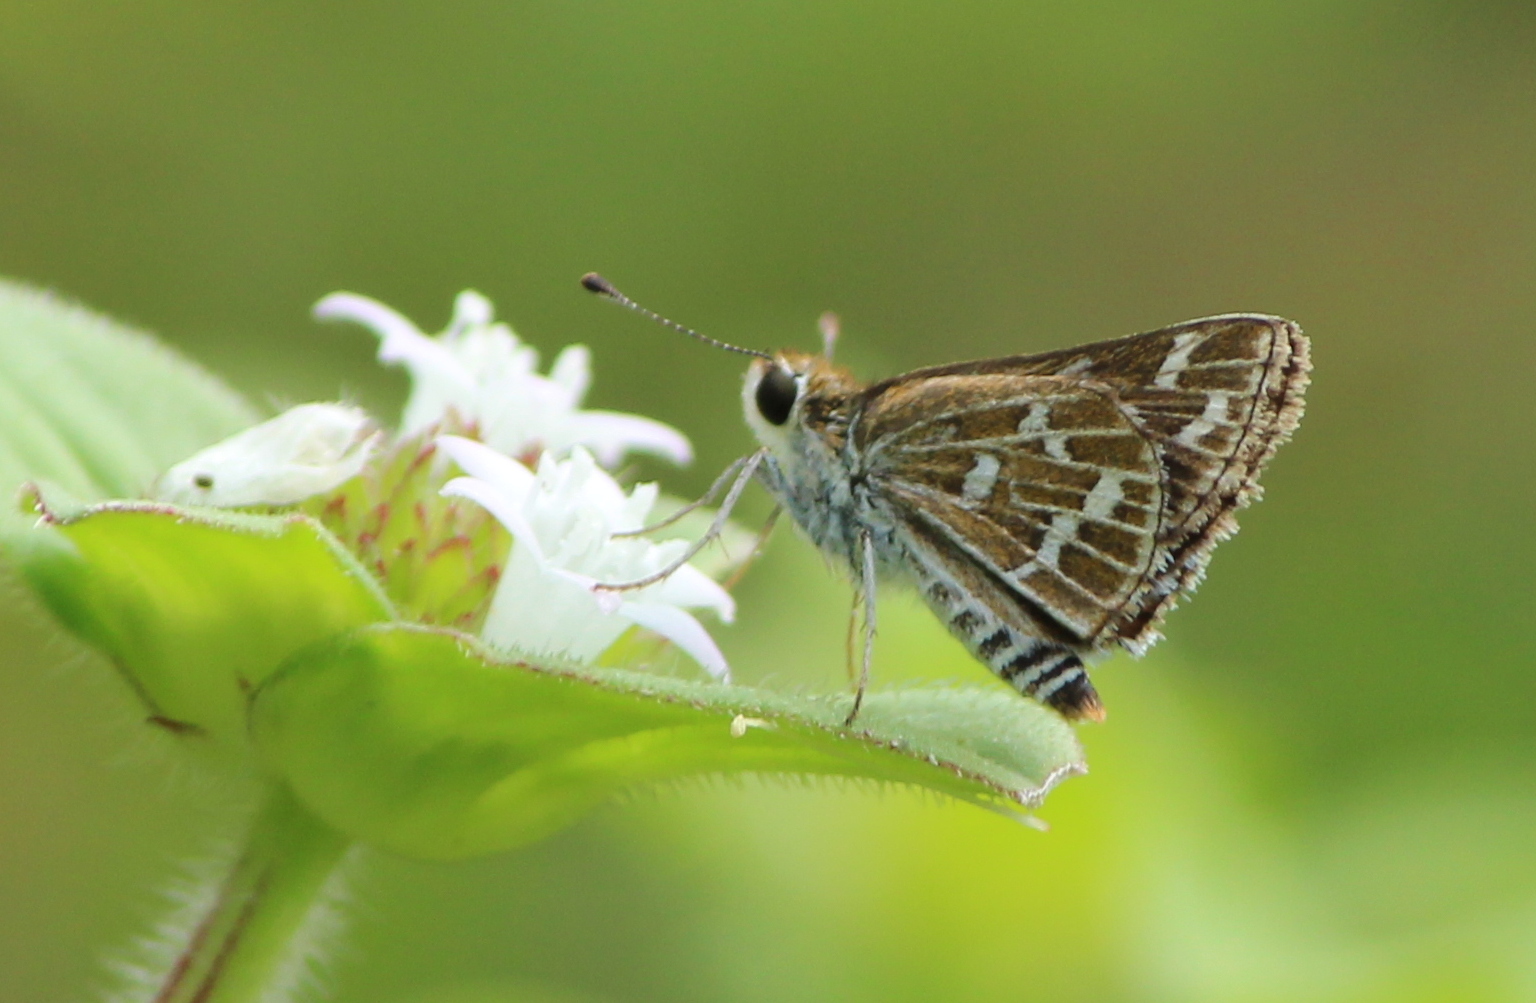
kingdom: Animalia
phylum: Arthropoda
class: Insecta
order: Lepidoptera
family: Hesperiidae
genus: Taractrocera
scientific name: Taractrocera maevius
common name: Common grass-dart
